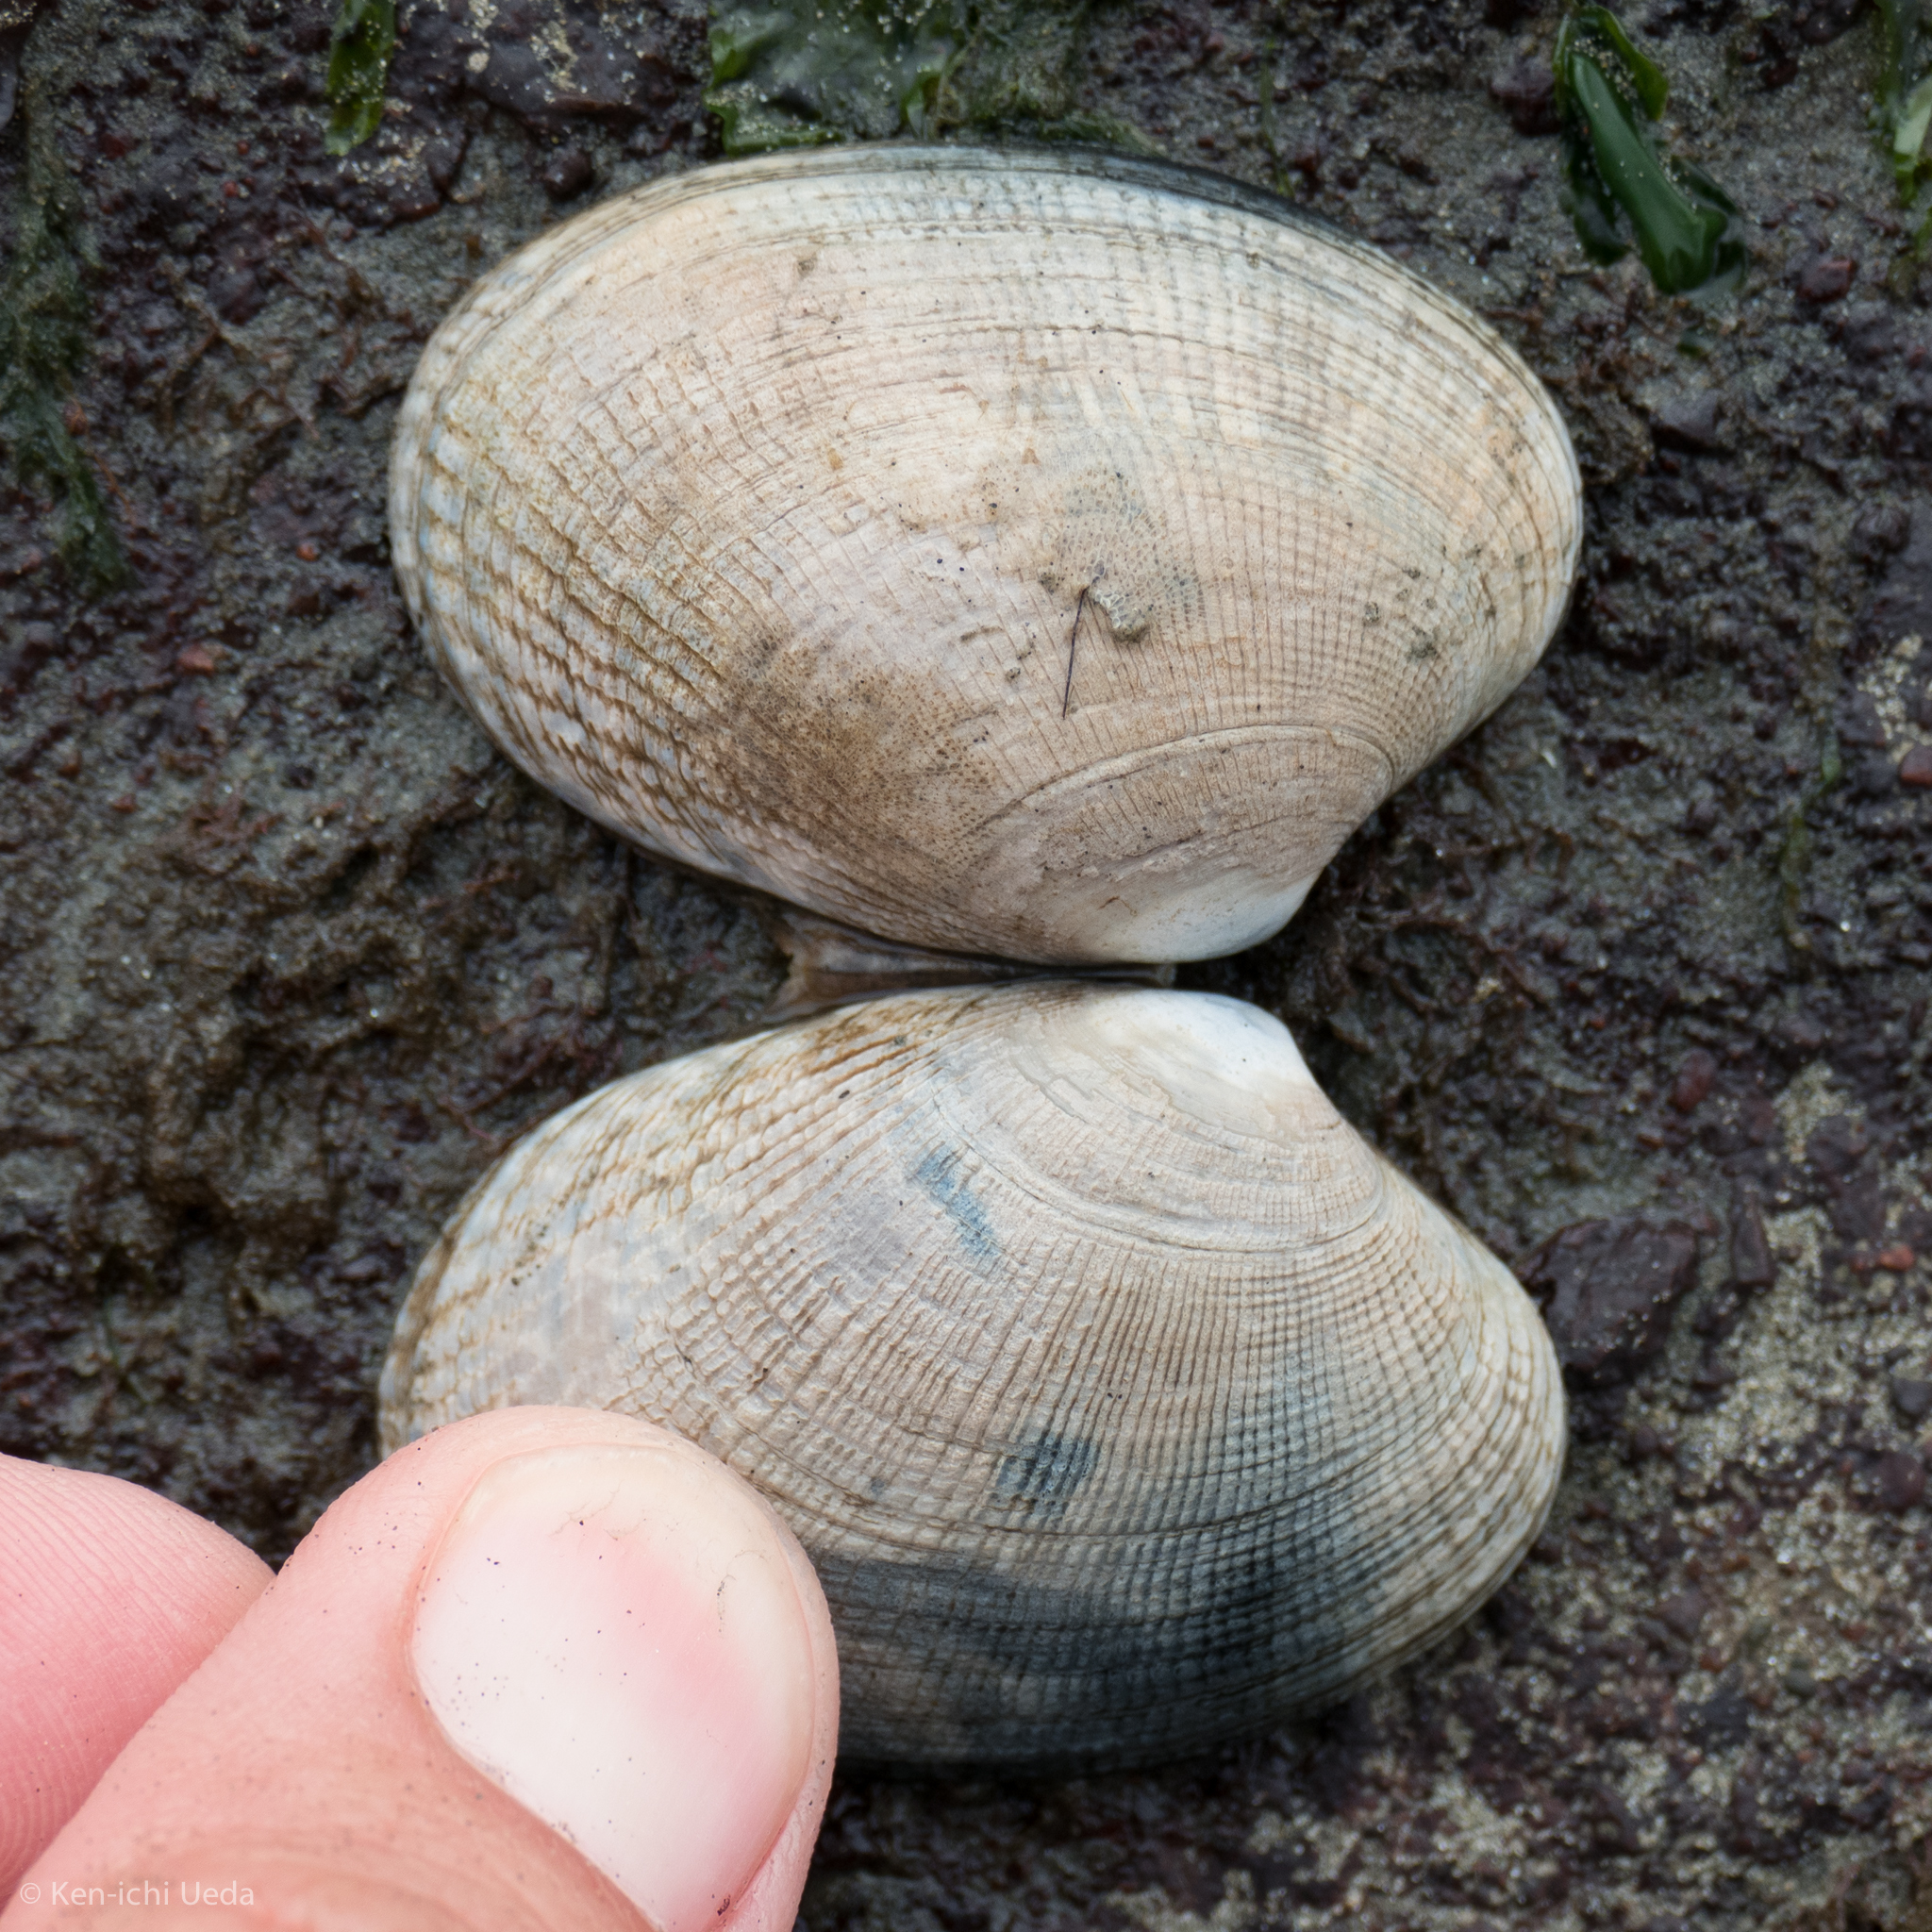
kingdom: Animalia
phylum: Mollusca
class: Bivalvia
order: Venerida
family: Veneridae
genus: Ruditapes
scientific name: Ruditapes philippinarum
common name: Manila clam
